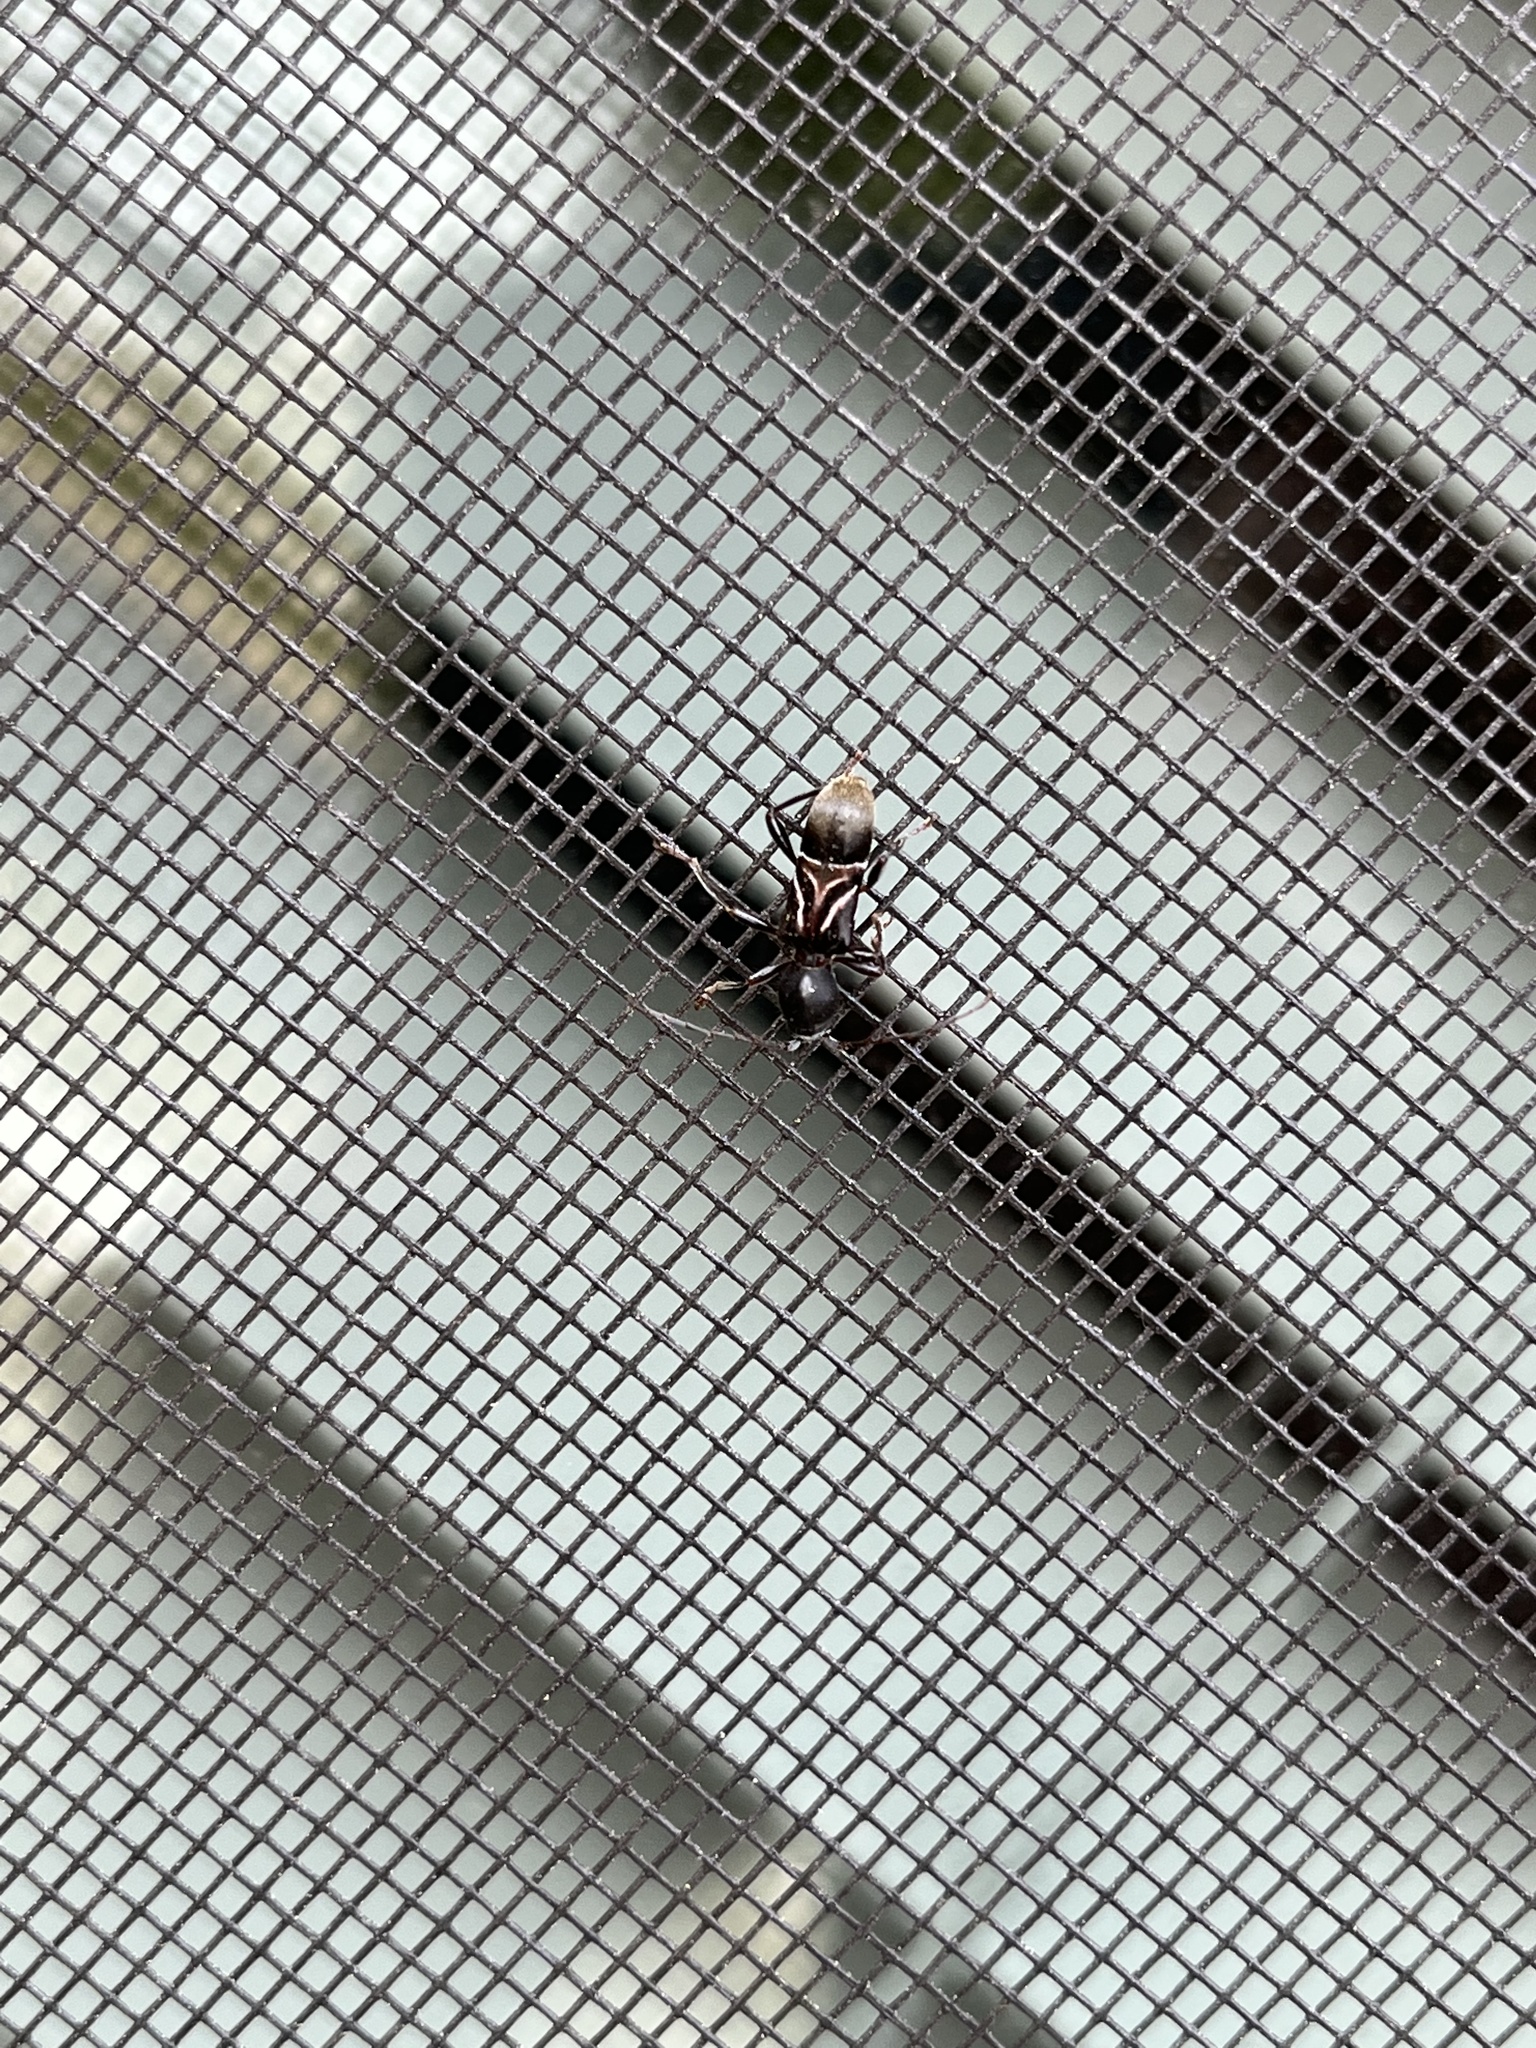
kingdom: Animalia
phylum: Arthropoda
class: Insecta
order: Coleoptera
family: Cerambycidae
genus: Cyrtophorus
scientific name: Cyrtophorus verrucosus
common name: Ant-like longhorn beetle
